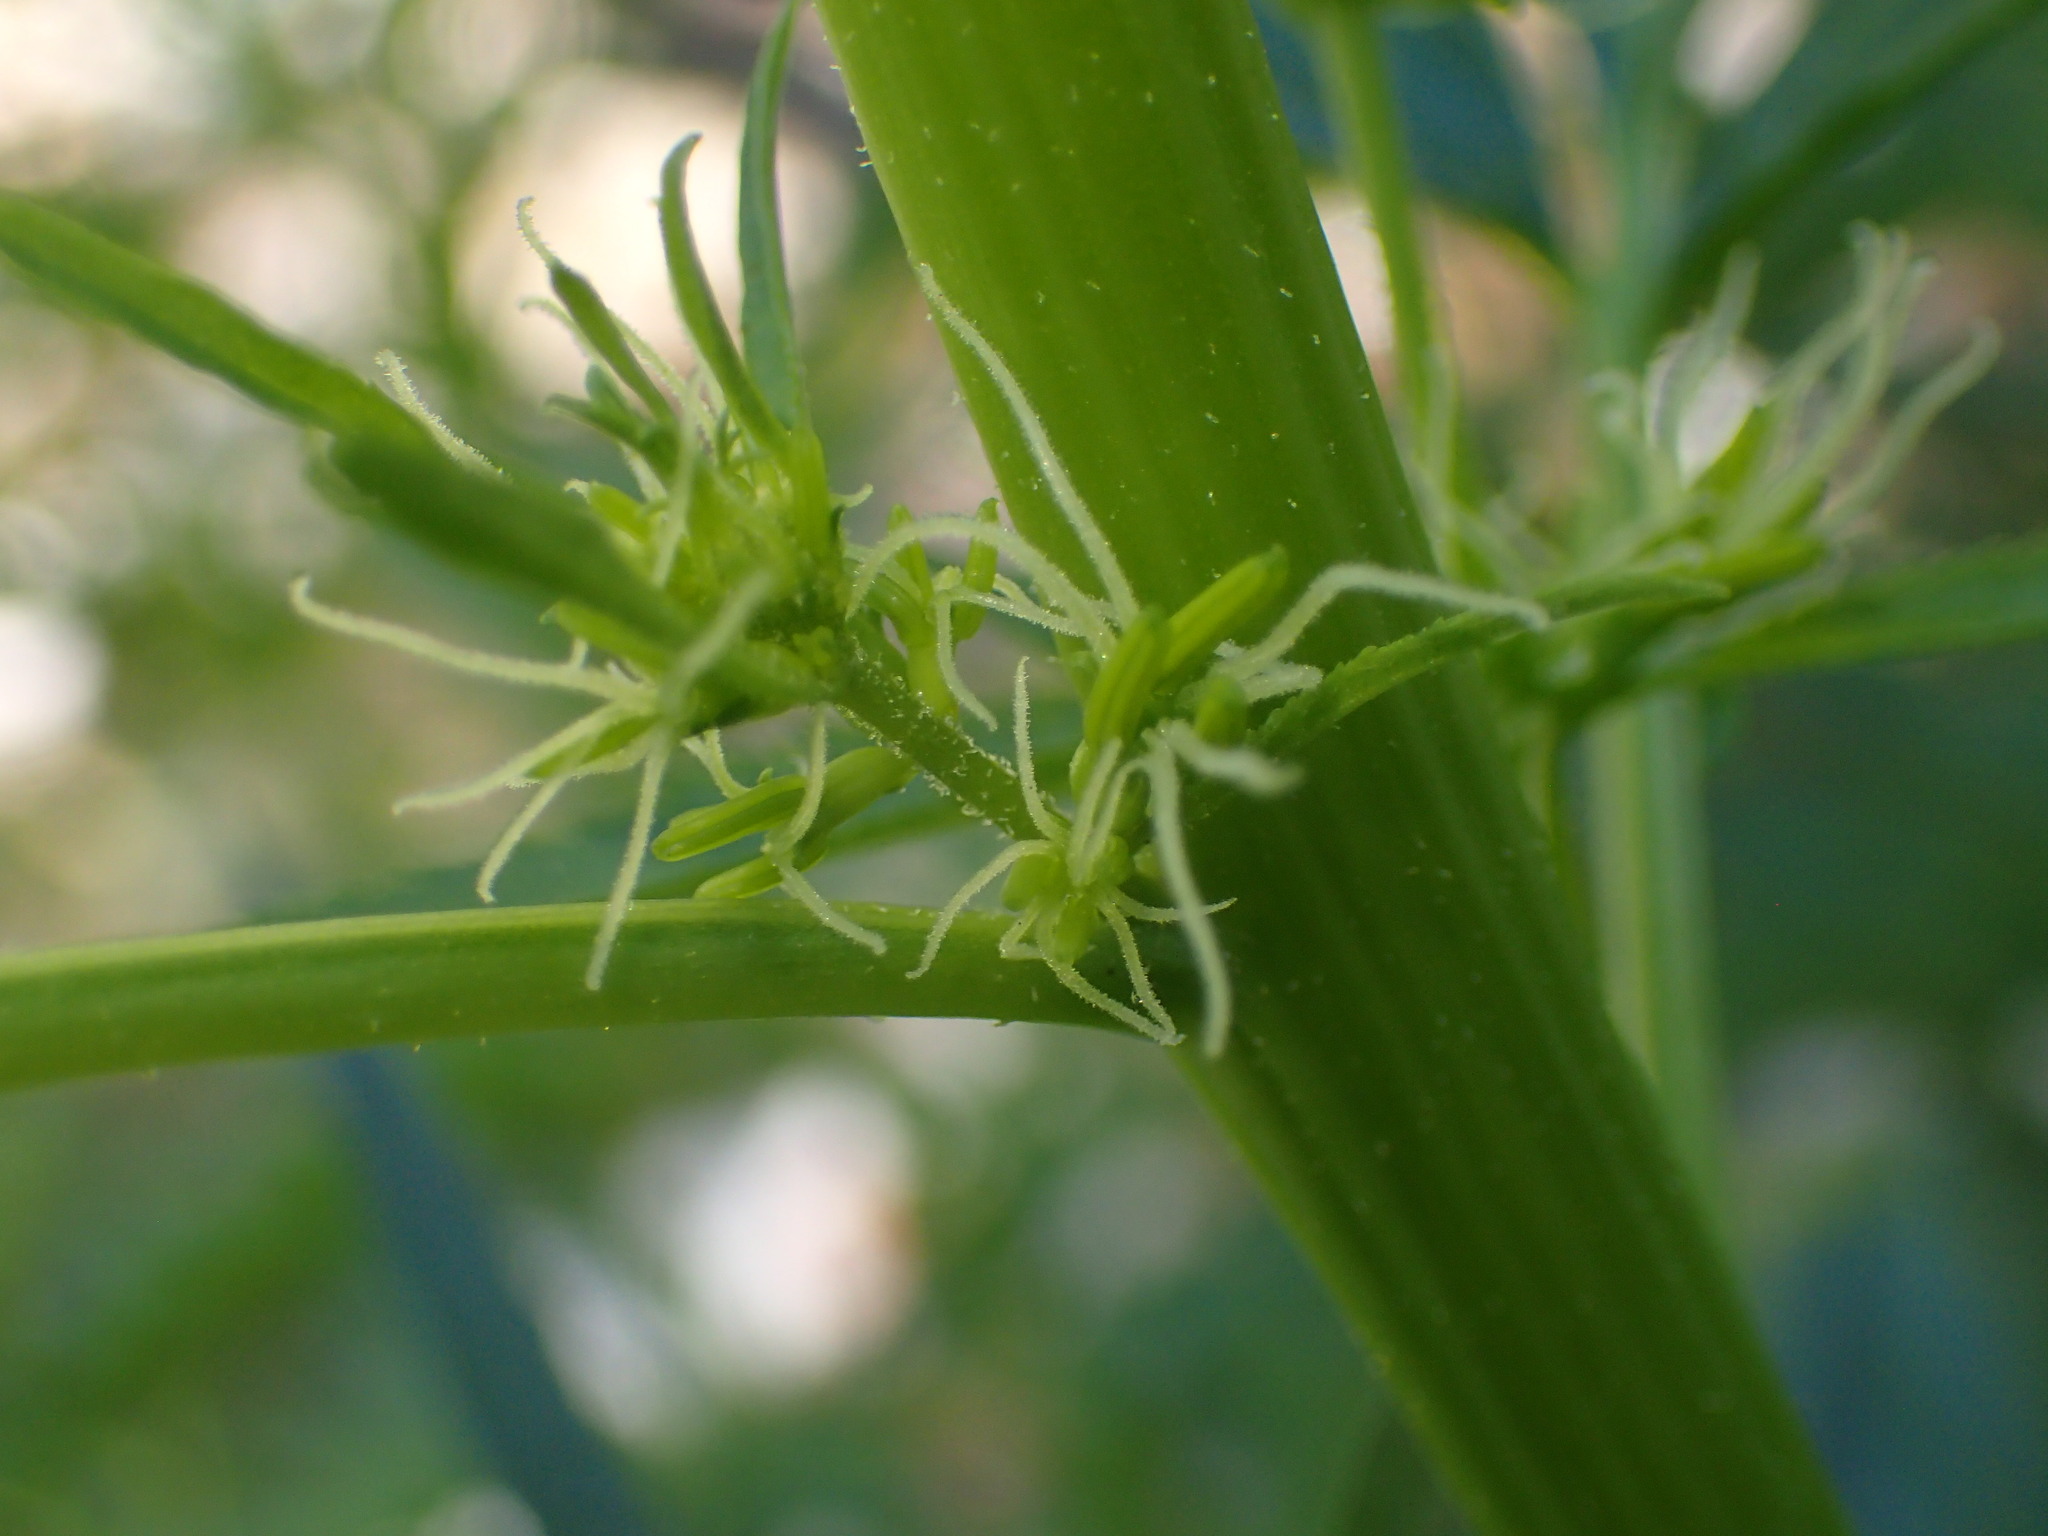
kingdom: Plantae
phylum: Tracheophyta
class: Magnoliopsida
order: Cucurbitales
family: Datiscaceae
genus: Datisca
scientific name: Datisca glomerata
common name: Durango-root
